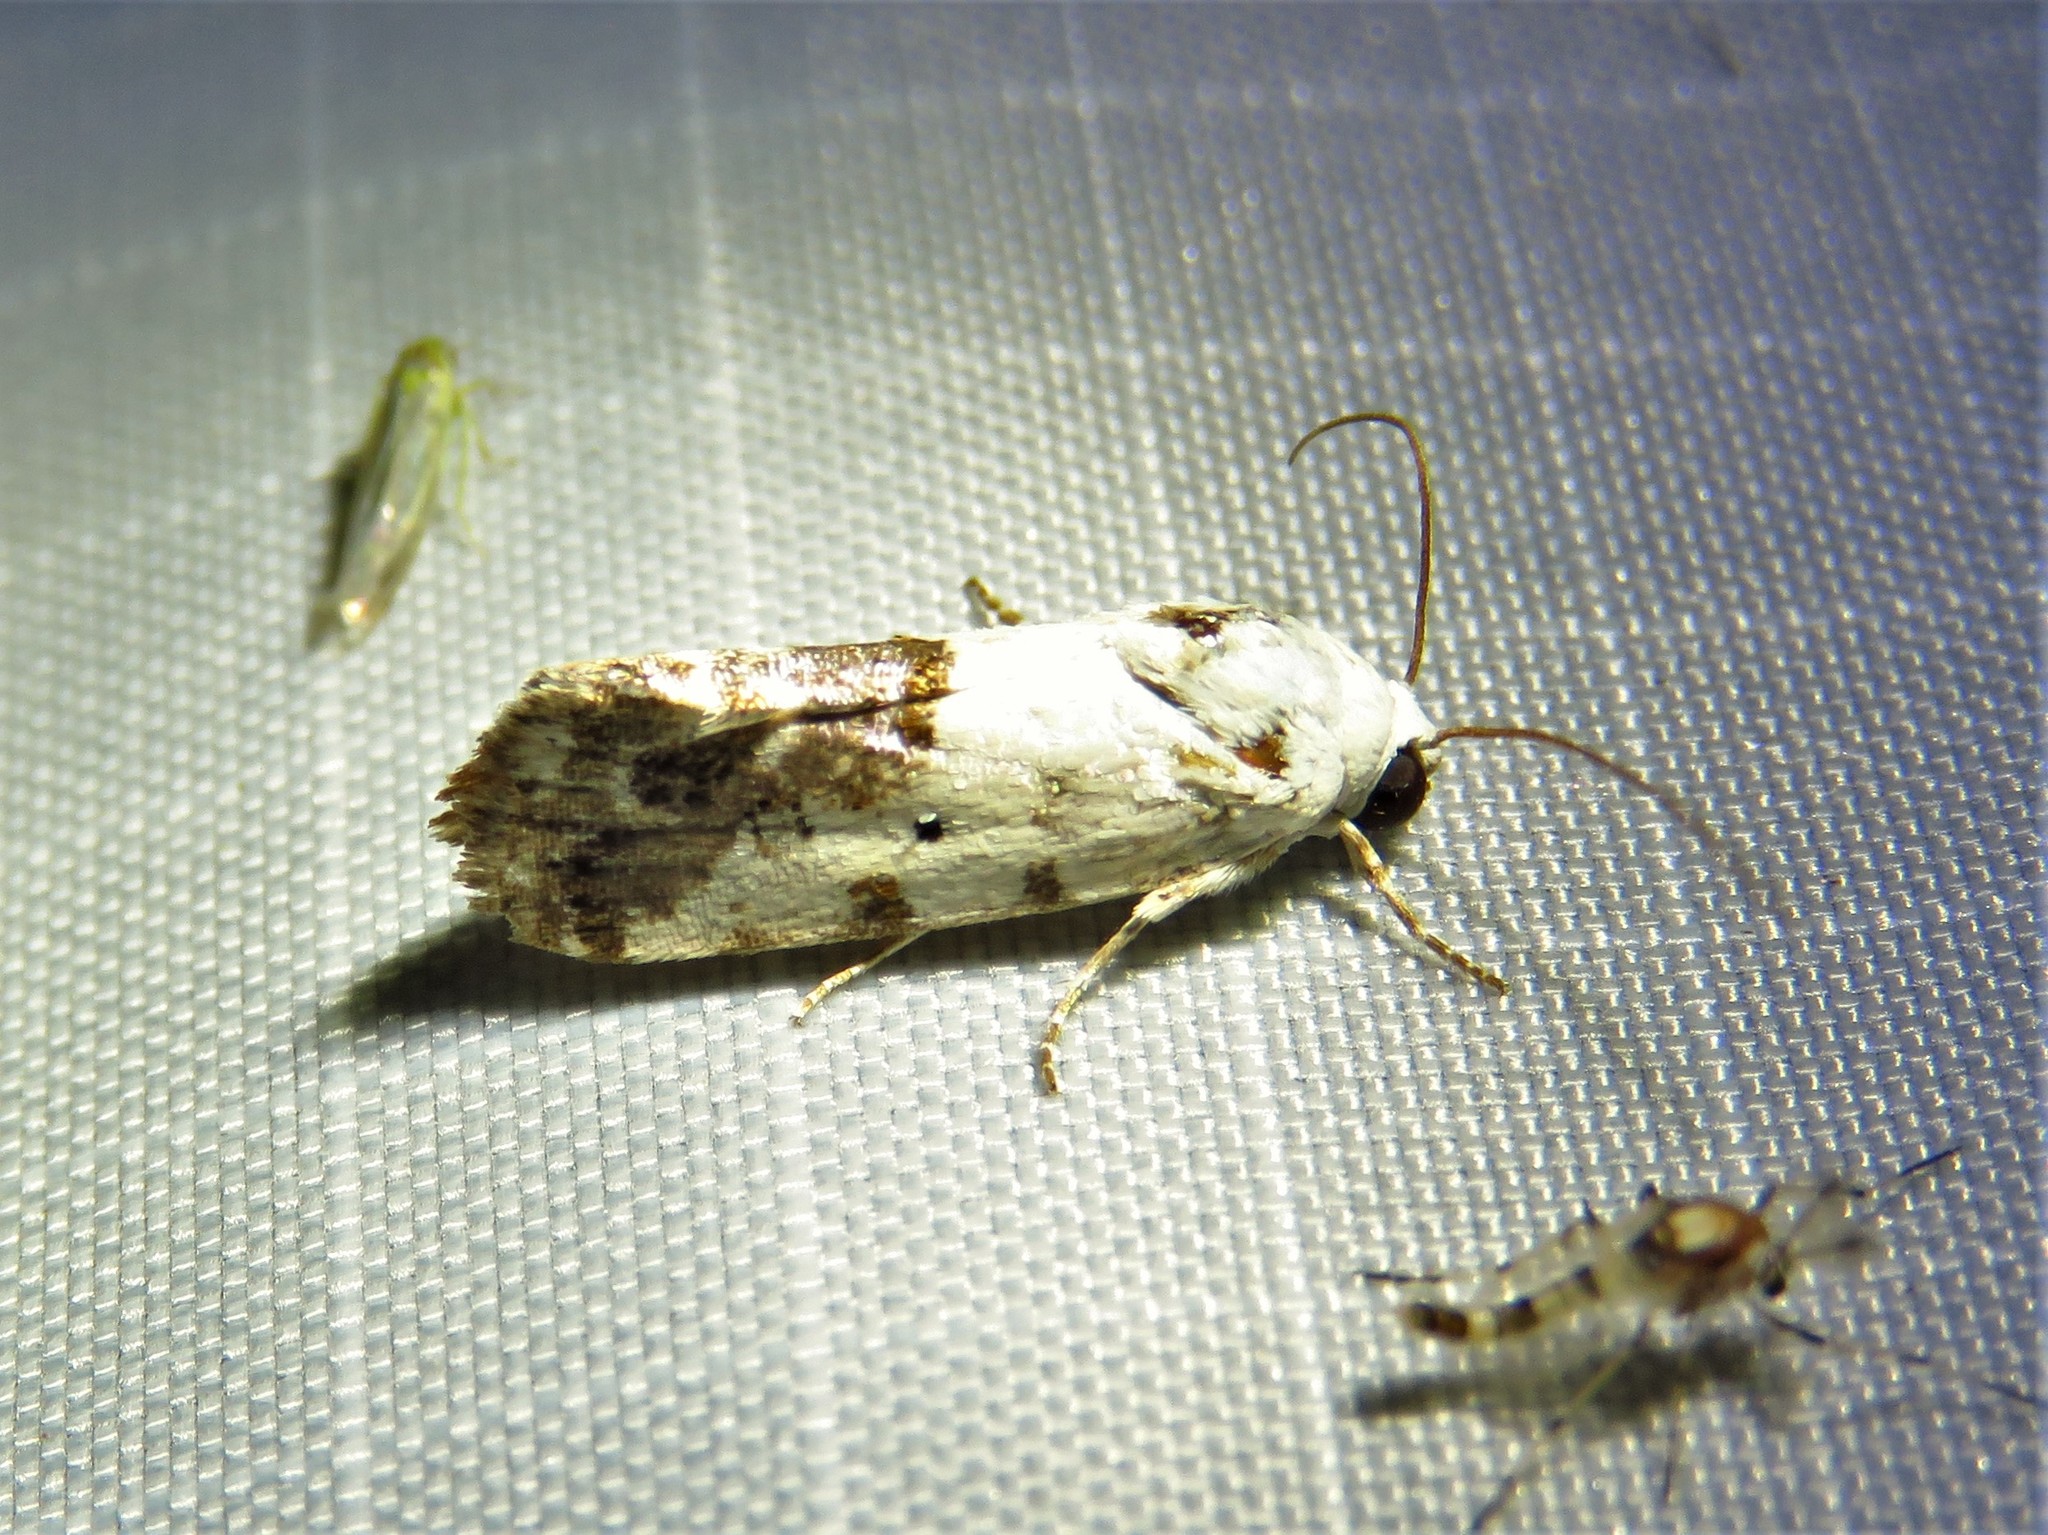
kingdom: Animalia
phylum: Arthropoda
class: Insecta
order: Lepidoptera
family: Noctuidae
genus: Acontia
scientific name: Acontia phecolisca
